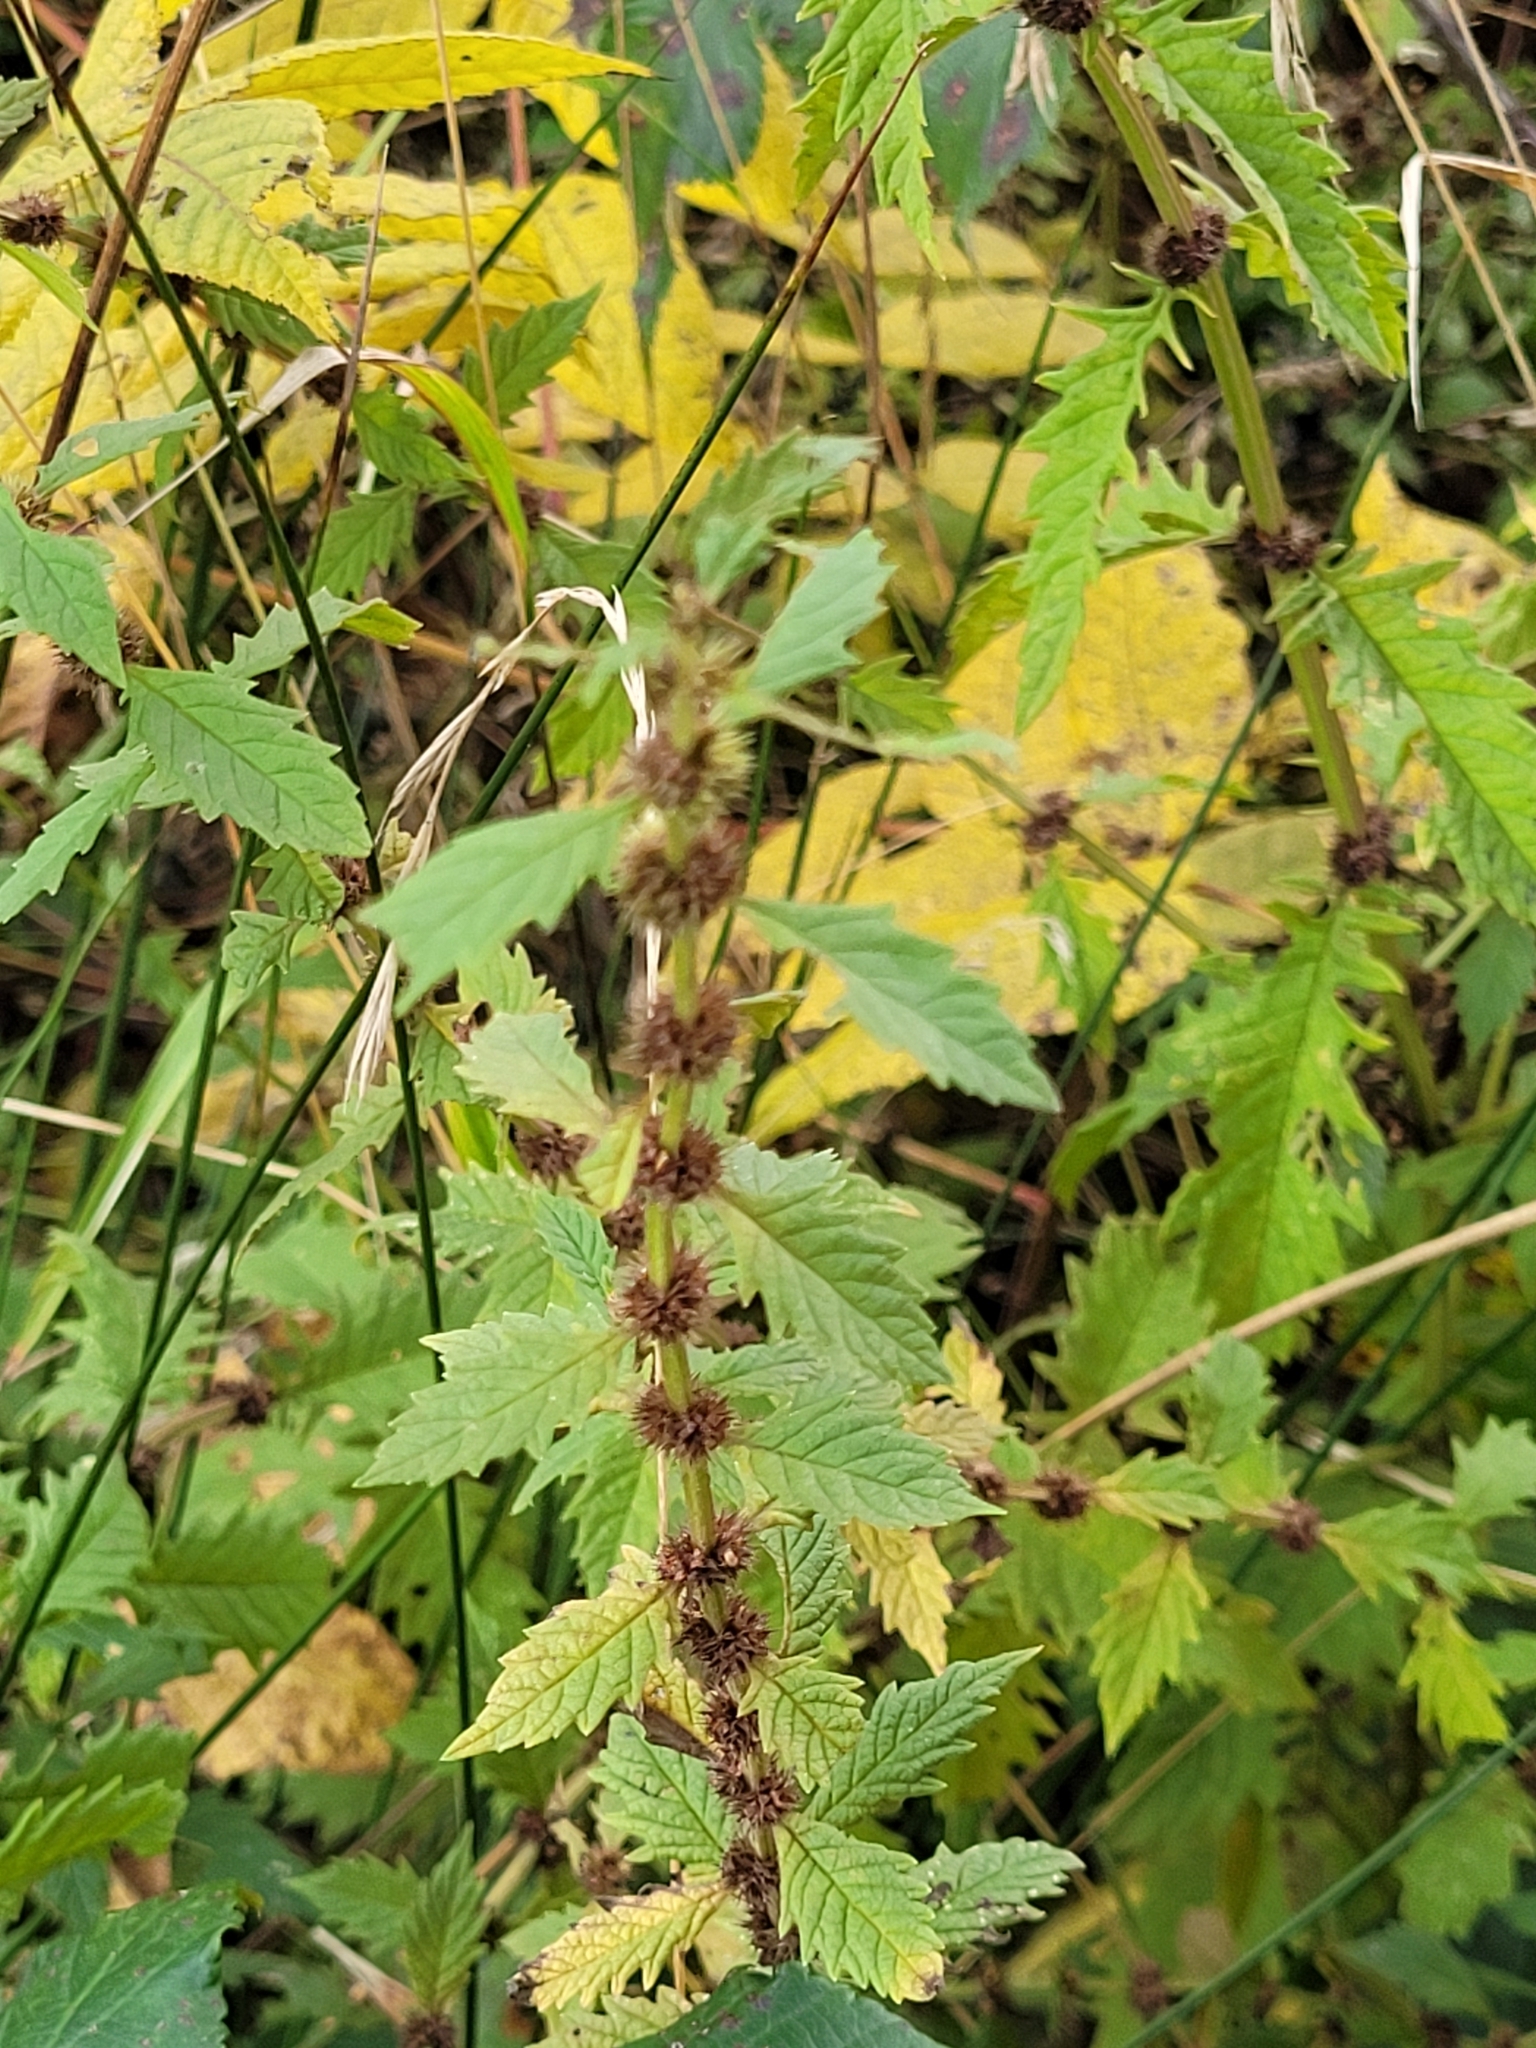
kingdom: Plantae
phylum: Tracheophyta
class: Magnoliopsida
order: Lamiales
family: Lamiaceae
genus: Lycopus
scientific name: Lycopus europaeus
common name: European bugleweed
